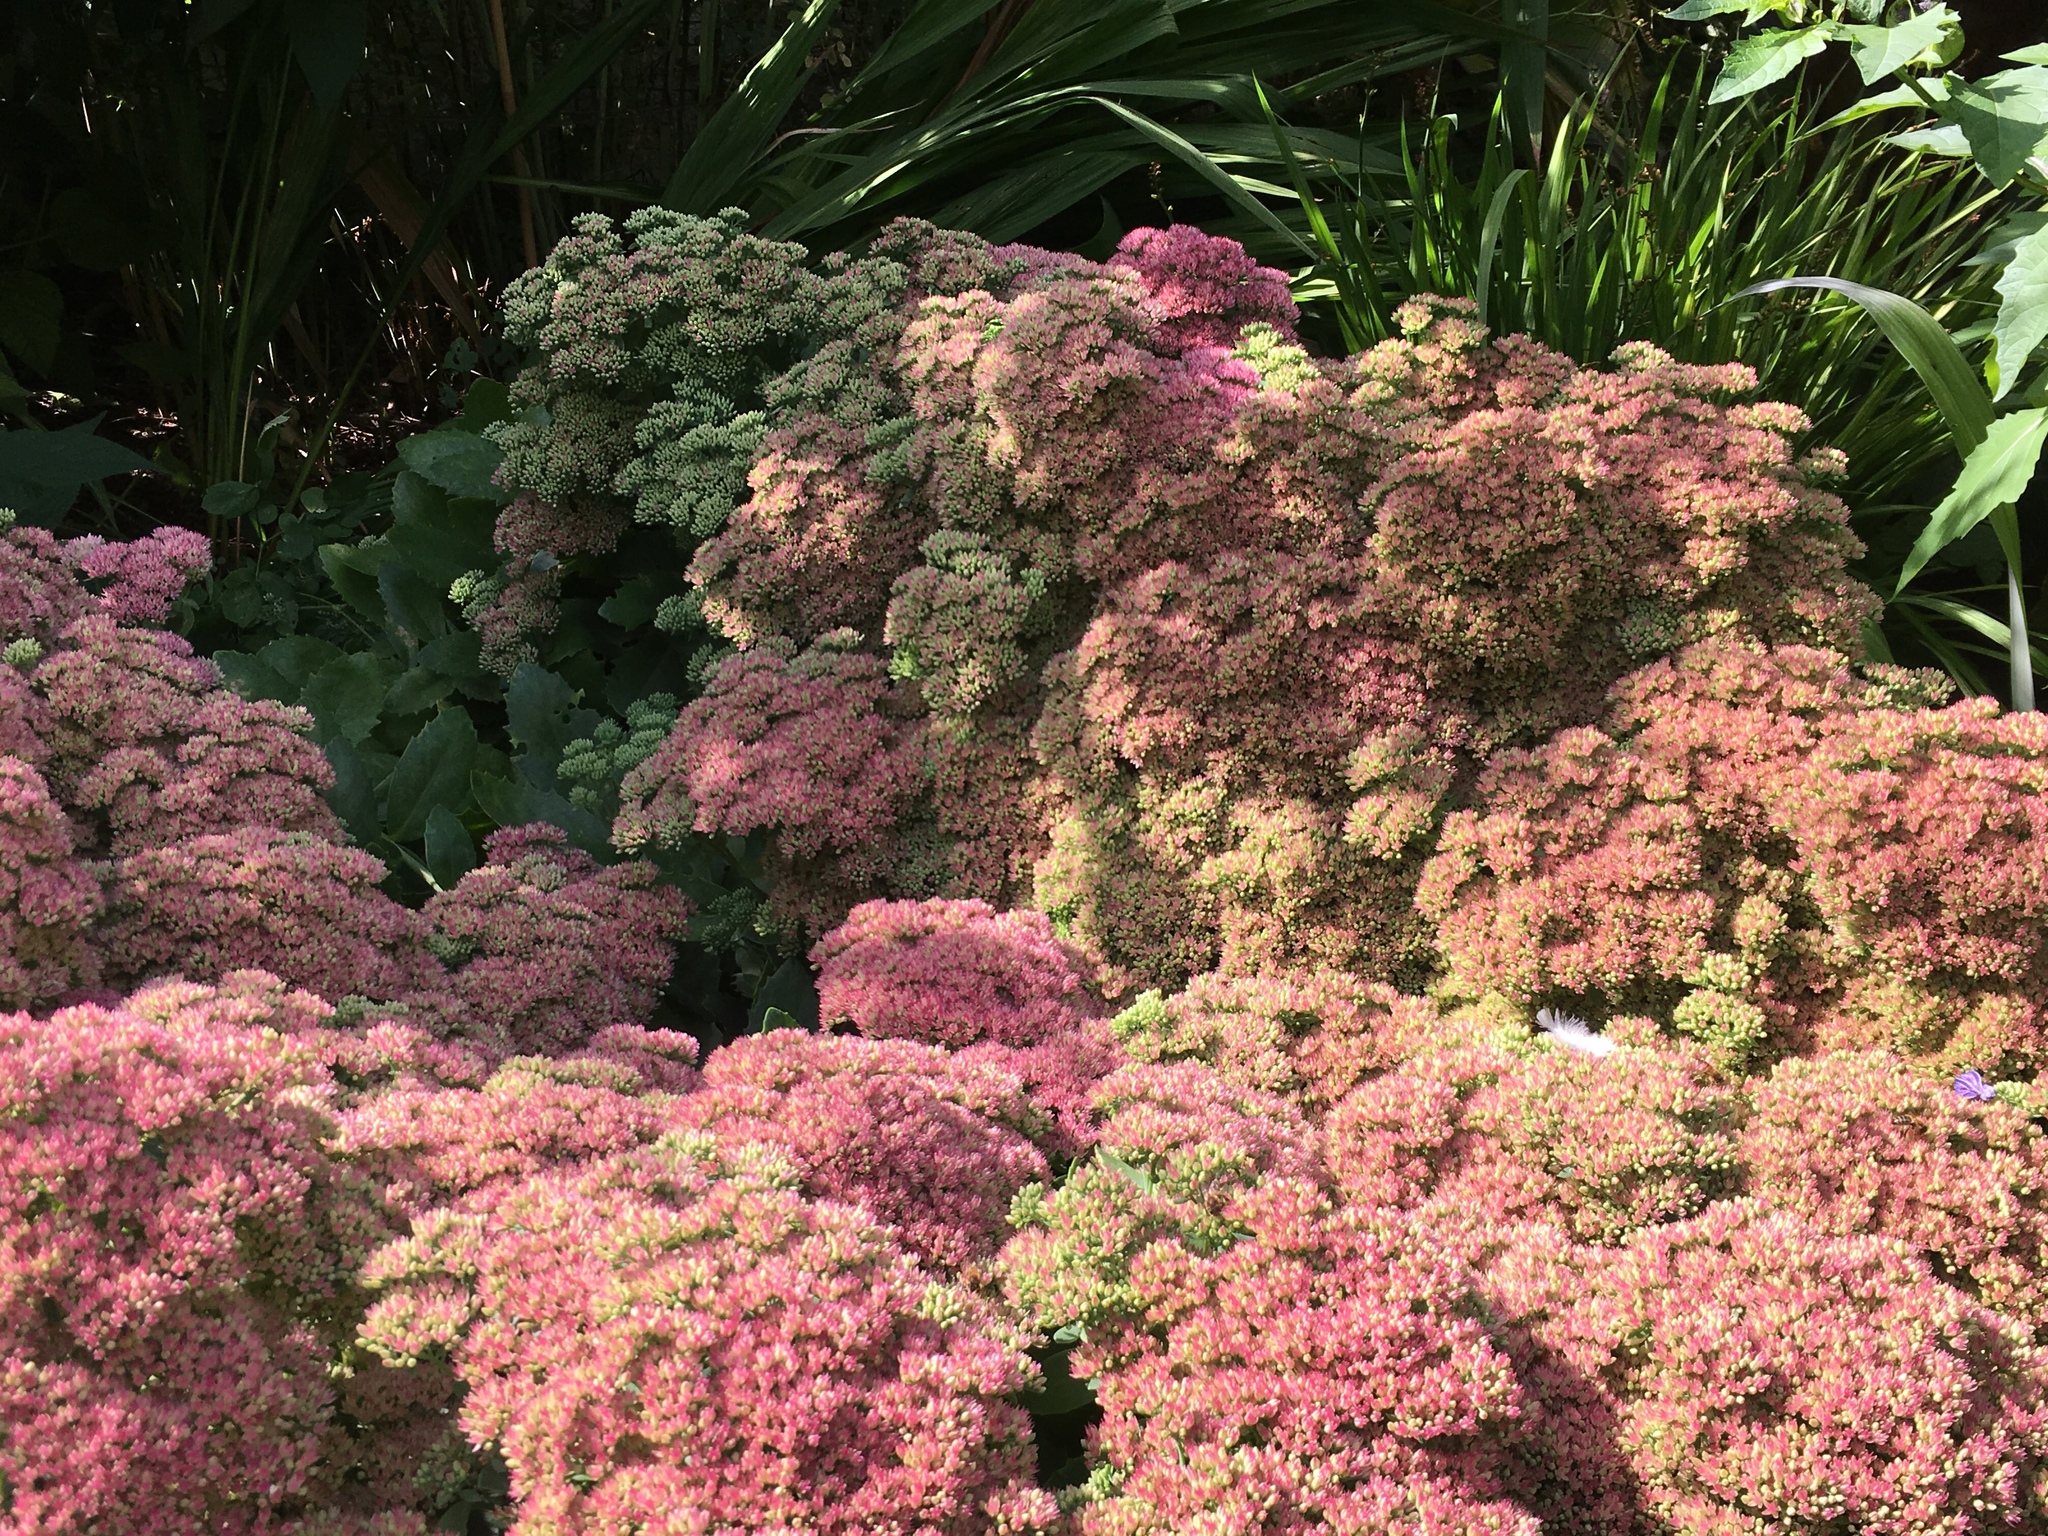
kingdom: Animalia
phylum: Arthropoda
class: Insecta
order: Hymenoptera
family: Apidae
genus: Apis
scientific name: Apis mellifera
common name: Honey bee
